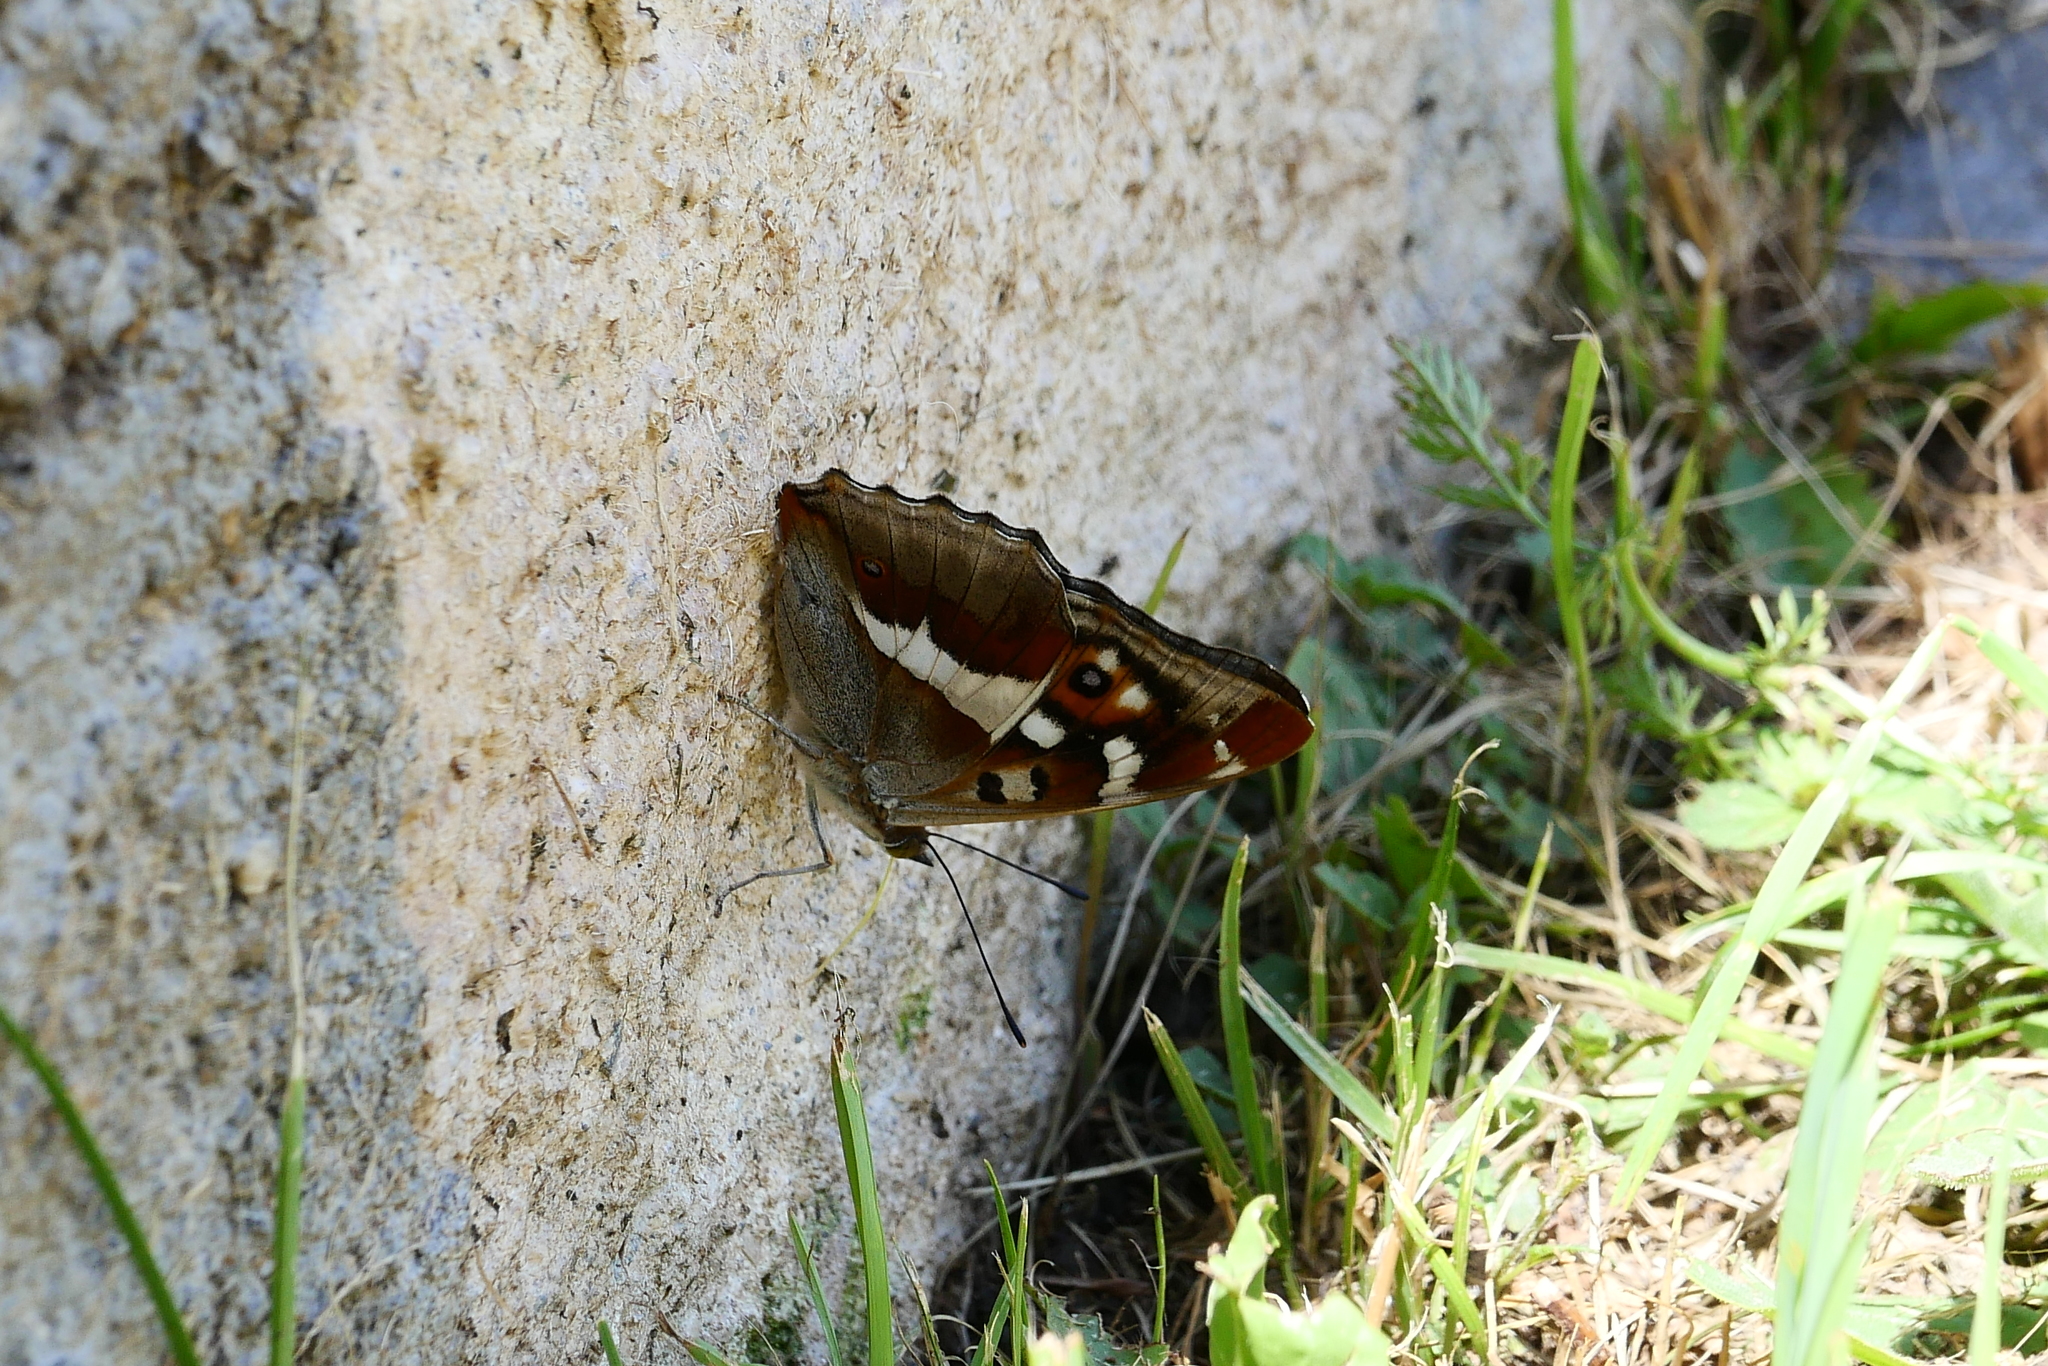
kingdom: Animalia
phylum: Arthropoda
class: Insecta
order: Lepidoptera
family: Nymphalidae
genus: Apatura
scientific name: Apatura iris
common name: Purple emperor
